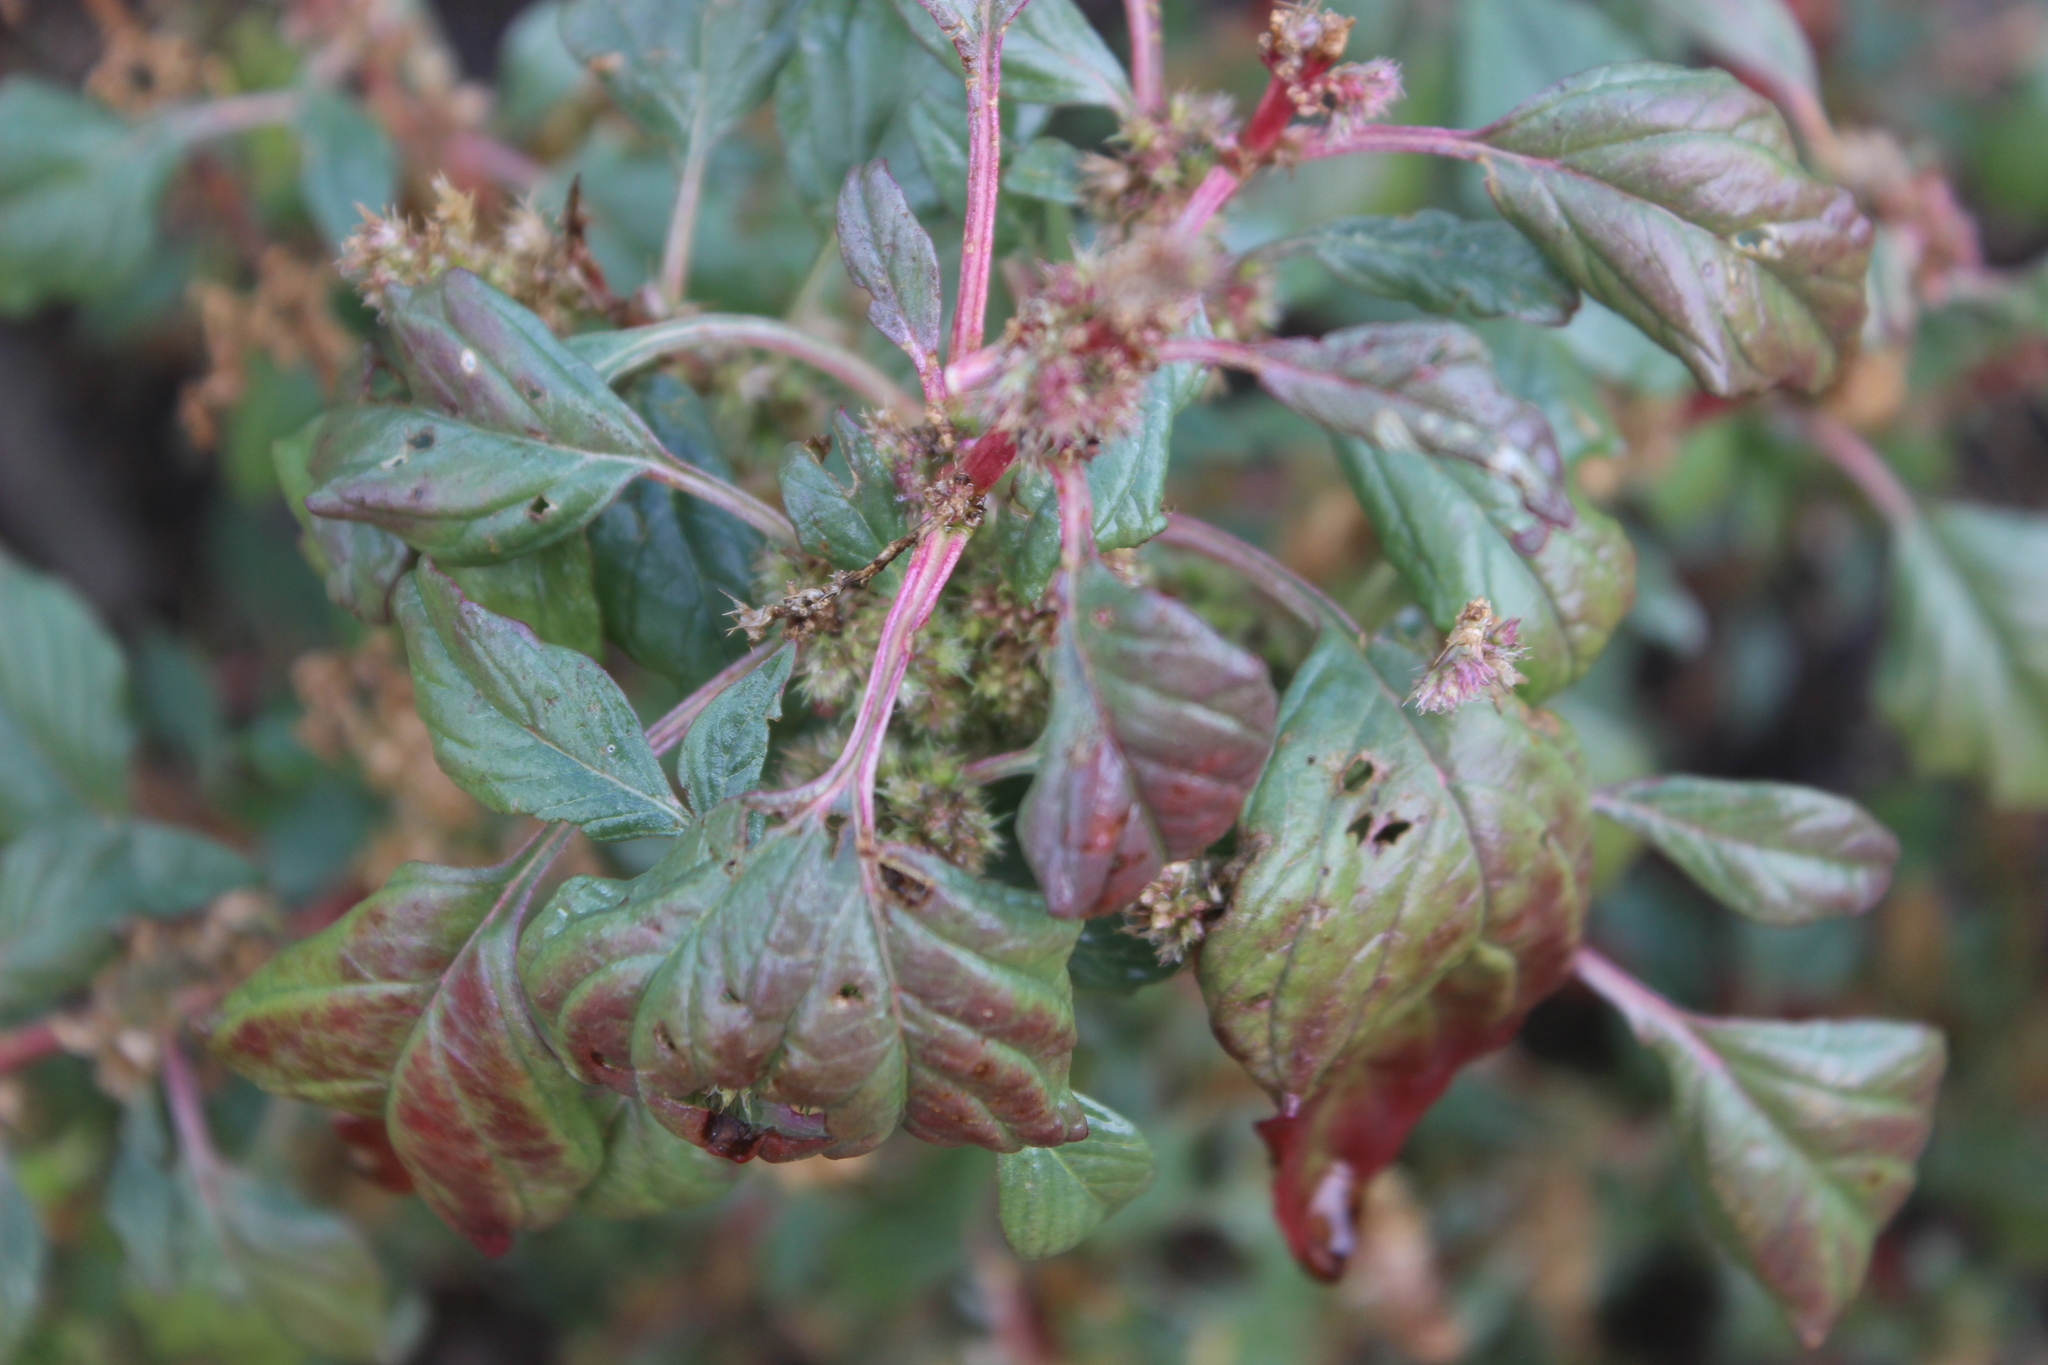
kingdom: Plantae
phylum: Tracheophyta
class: Magnoliopsida
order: Caryophyllales
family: Amaranthaceae
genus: Amaranthus
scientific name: Amaranthus powellii
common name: Powell's amaranth
